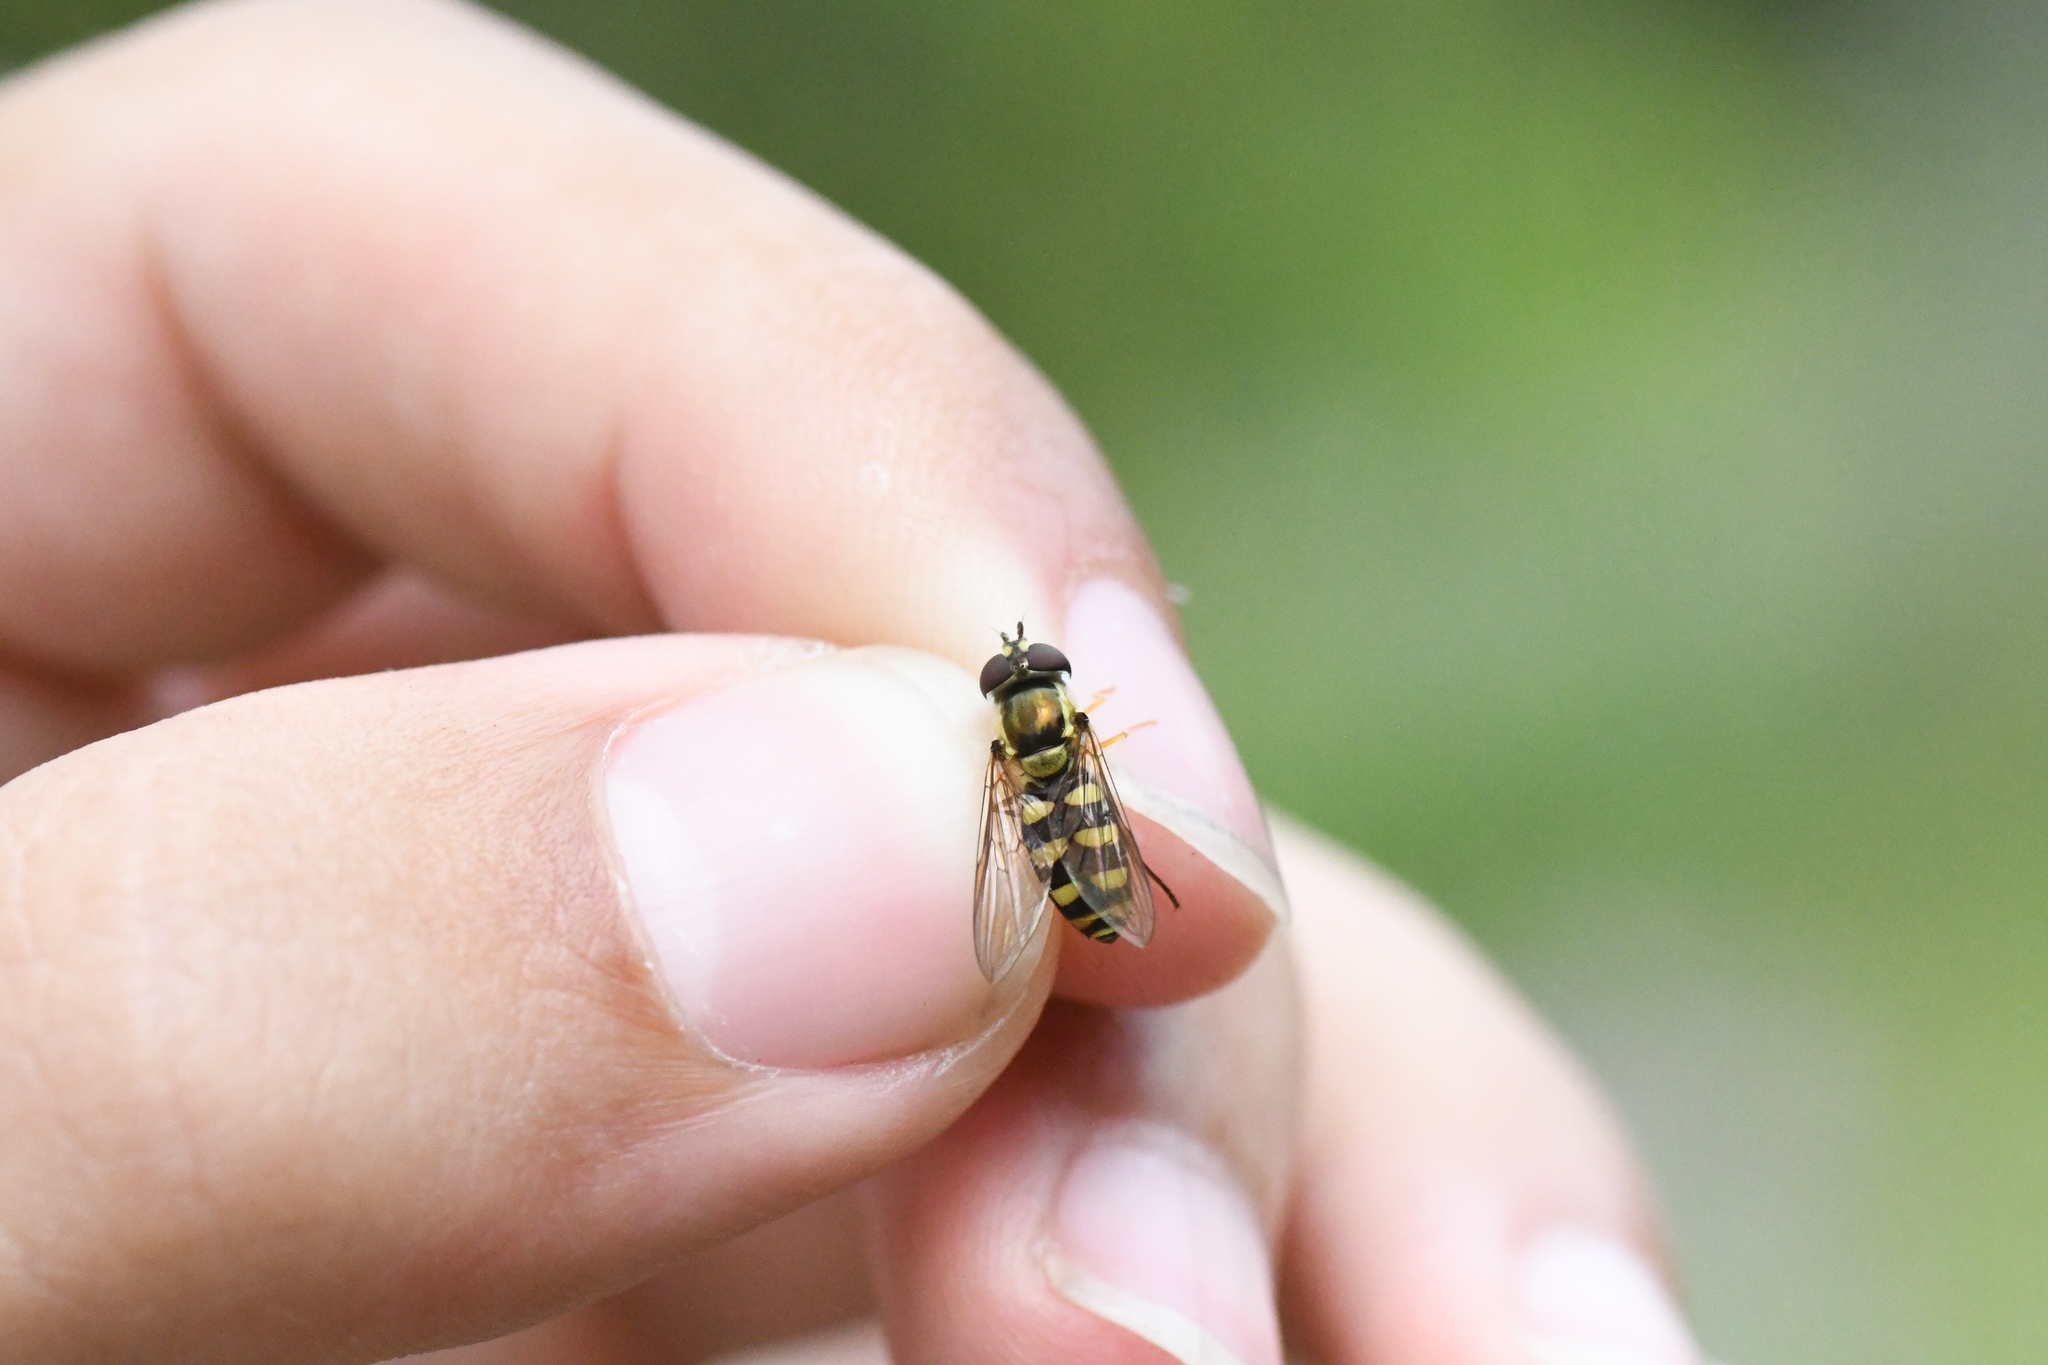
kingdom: Animalia
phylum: Arthropoda
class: Insecta
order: Diptera
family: Syrphidae
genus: Epistrophella
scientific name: Epistrophella emarginata
